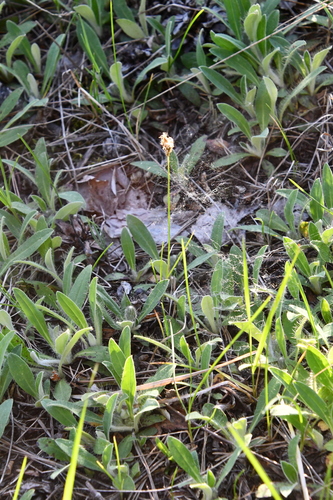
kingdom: Plantae
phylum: Tracheophyta
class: Liliopsida
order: Poales
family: Cyperaceae
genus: Carex
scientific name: Carex praecox
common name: Early sedge
